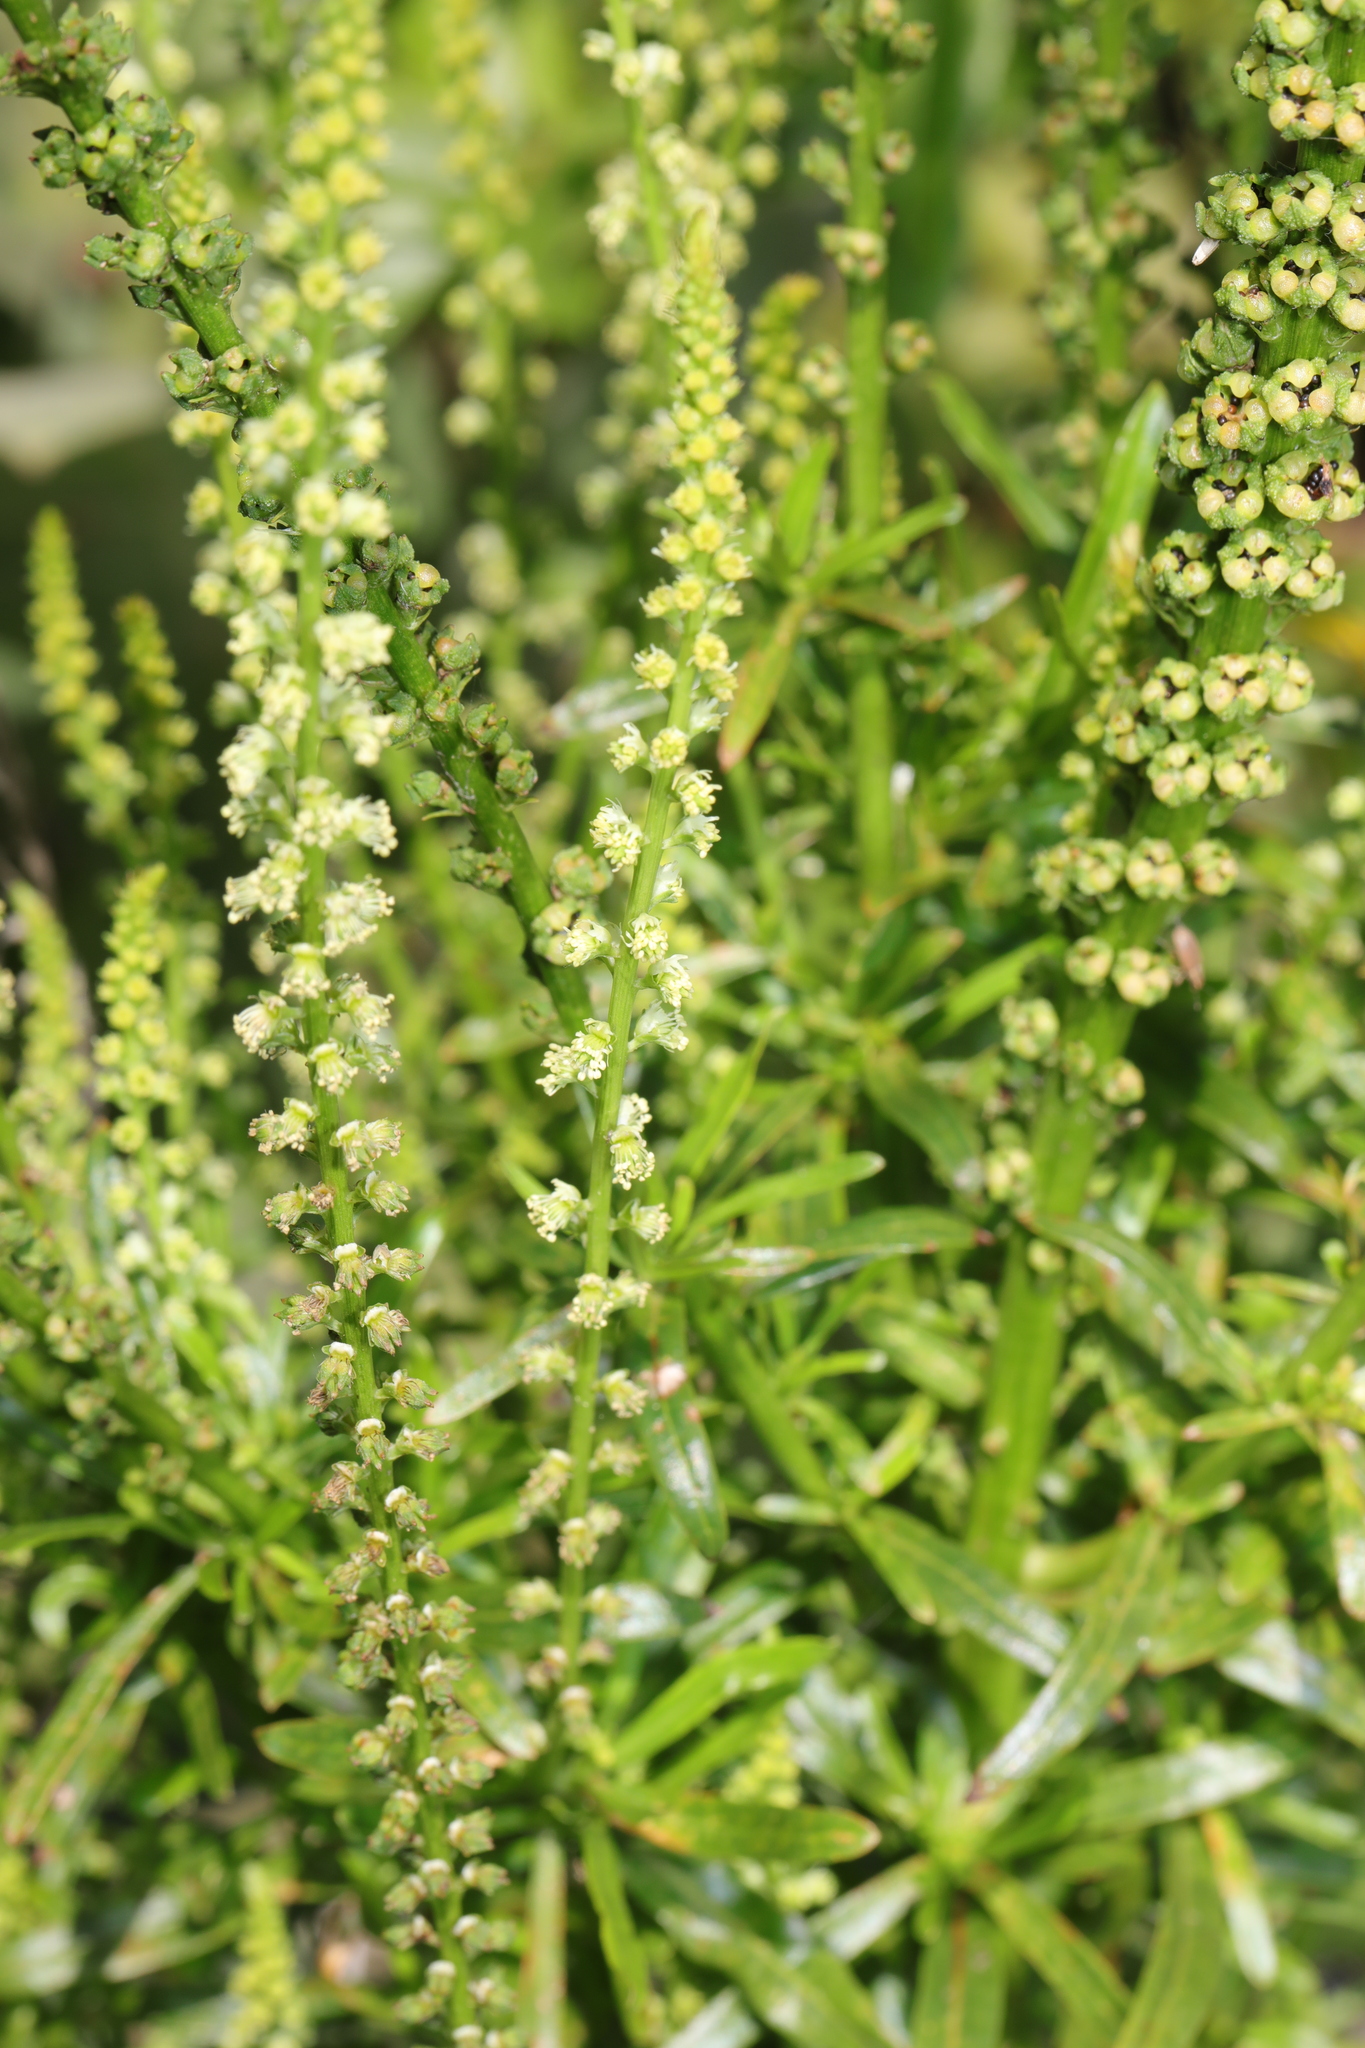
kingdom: Plantae
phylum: Tracheophyta
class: Magnoliopsida
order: Brassicales
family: Resedaceae
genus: Reseda
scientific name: Reseda luteola
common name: Weld
